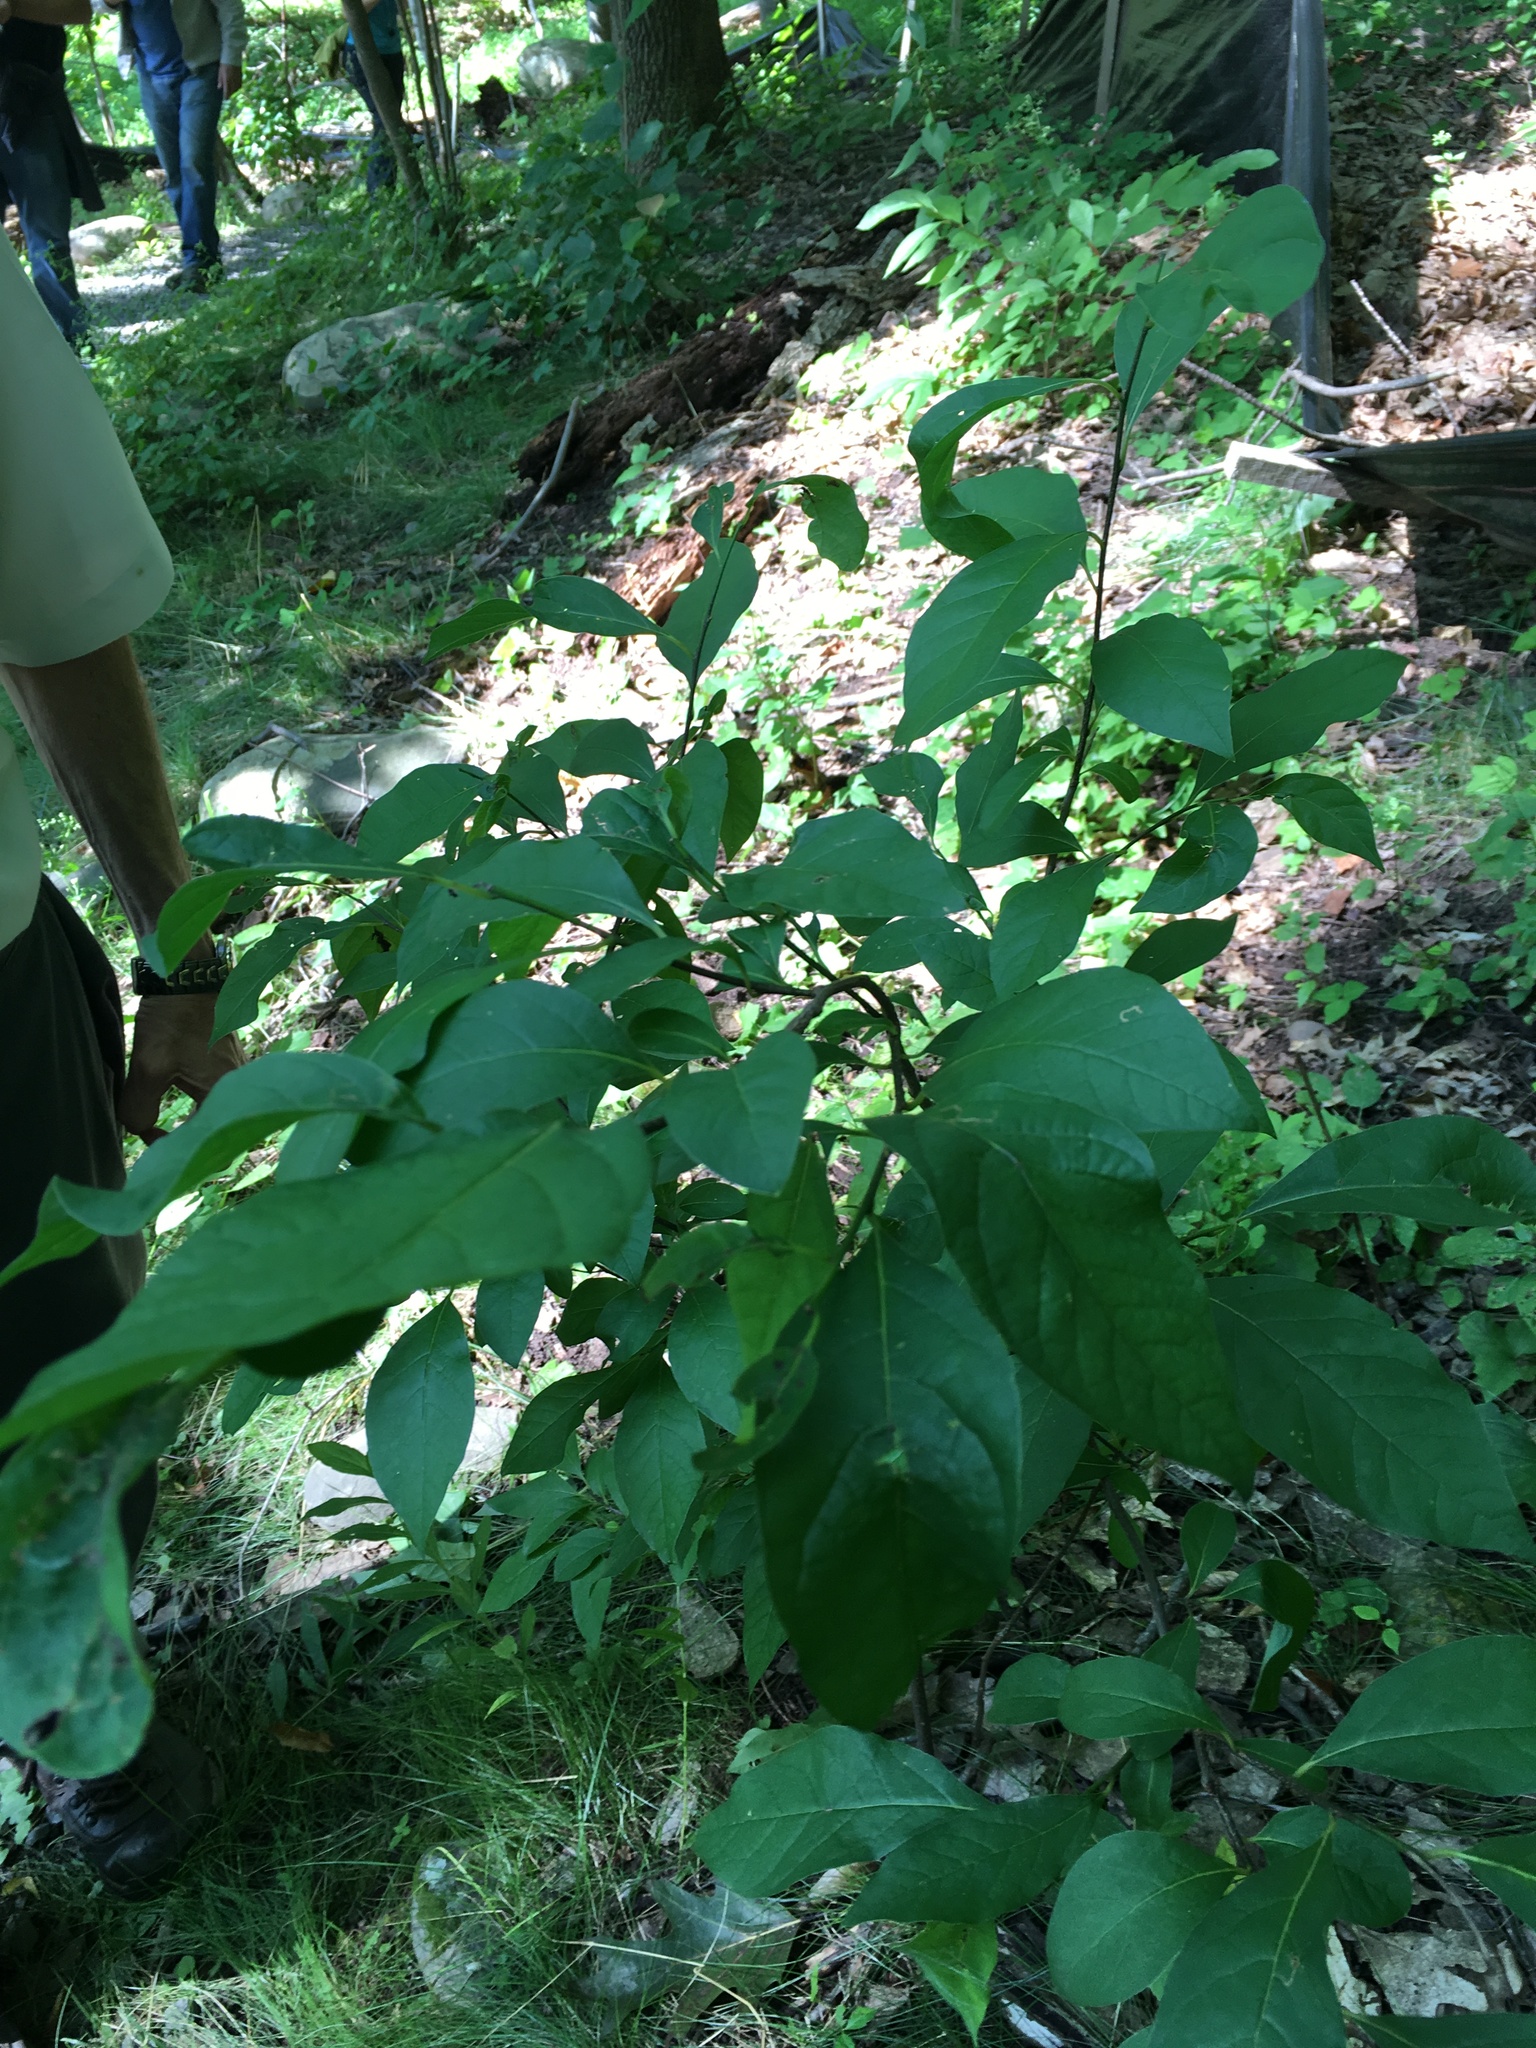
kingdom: Plantae
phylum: Tracheophyta
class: Magnoliopsida
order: Laurales
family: Lauraceae
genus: Lindera
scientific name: Lindera benzoin
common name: Spicebush
